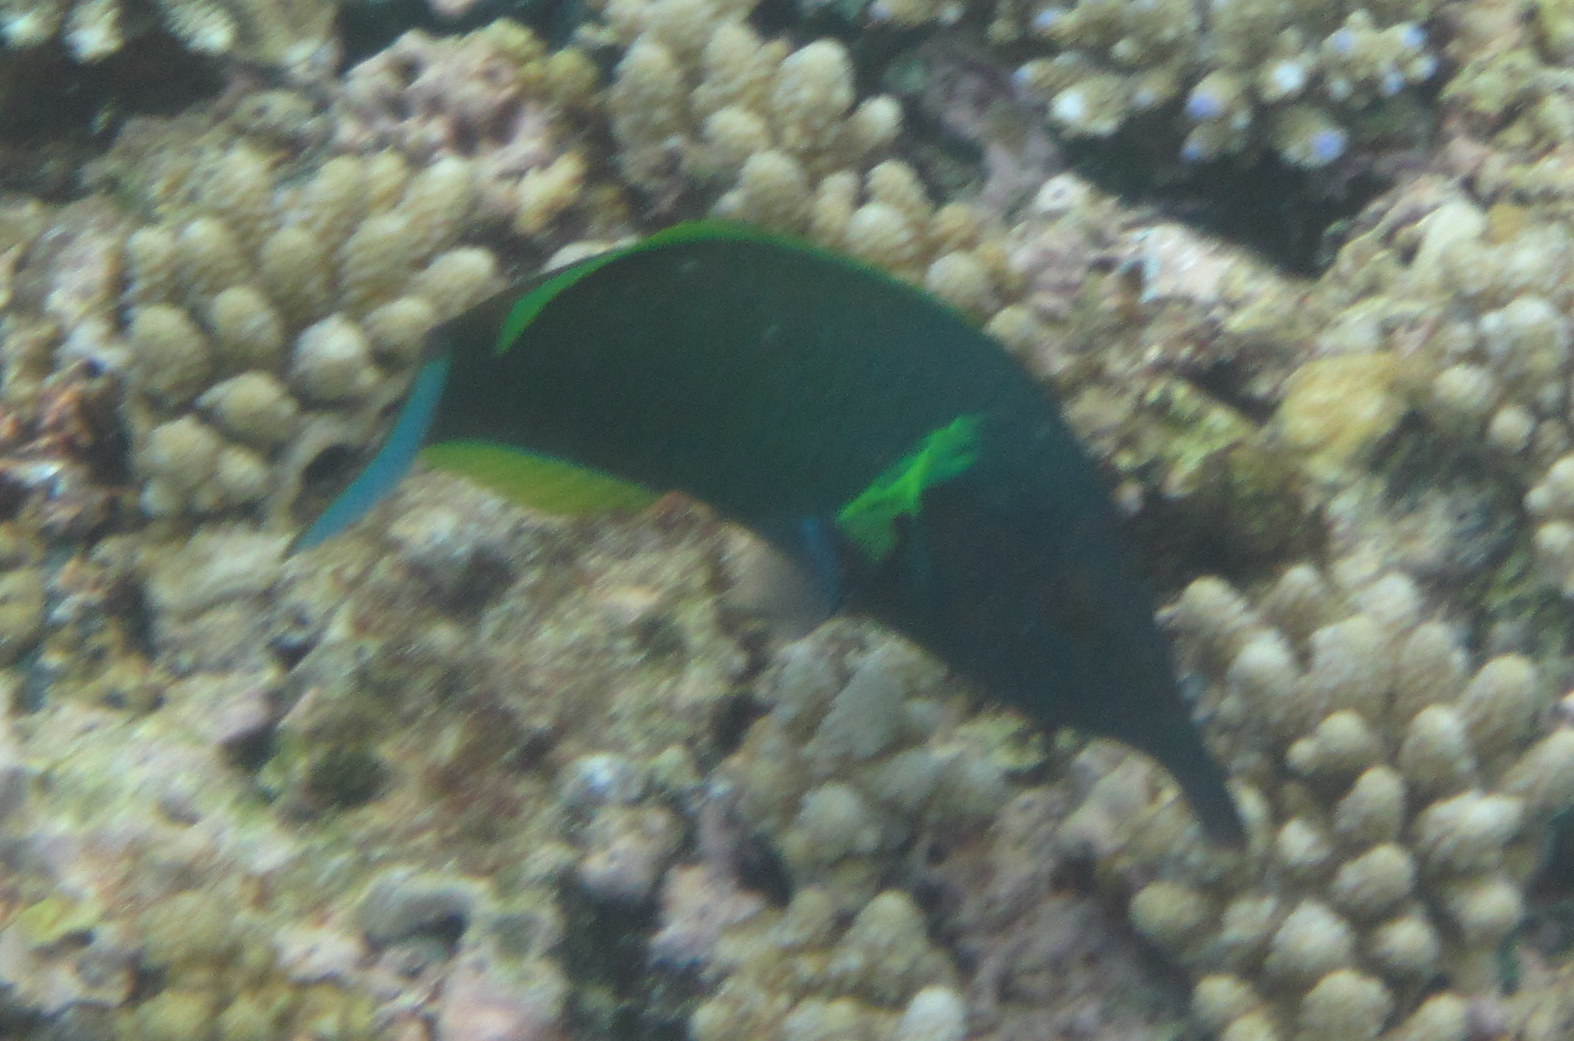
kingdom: Animalia
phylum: Chordata
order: Perciformes
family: Labridae
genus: Gomphosus
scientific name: Gomphosus varius
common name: Bird wrasse
